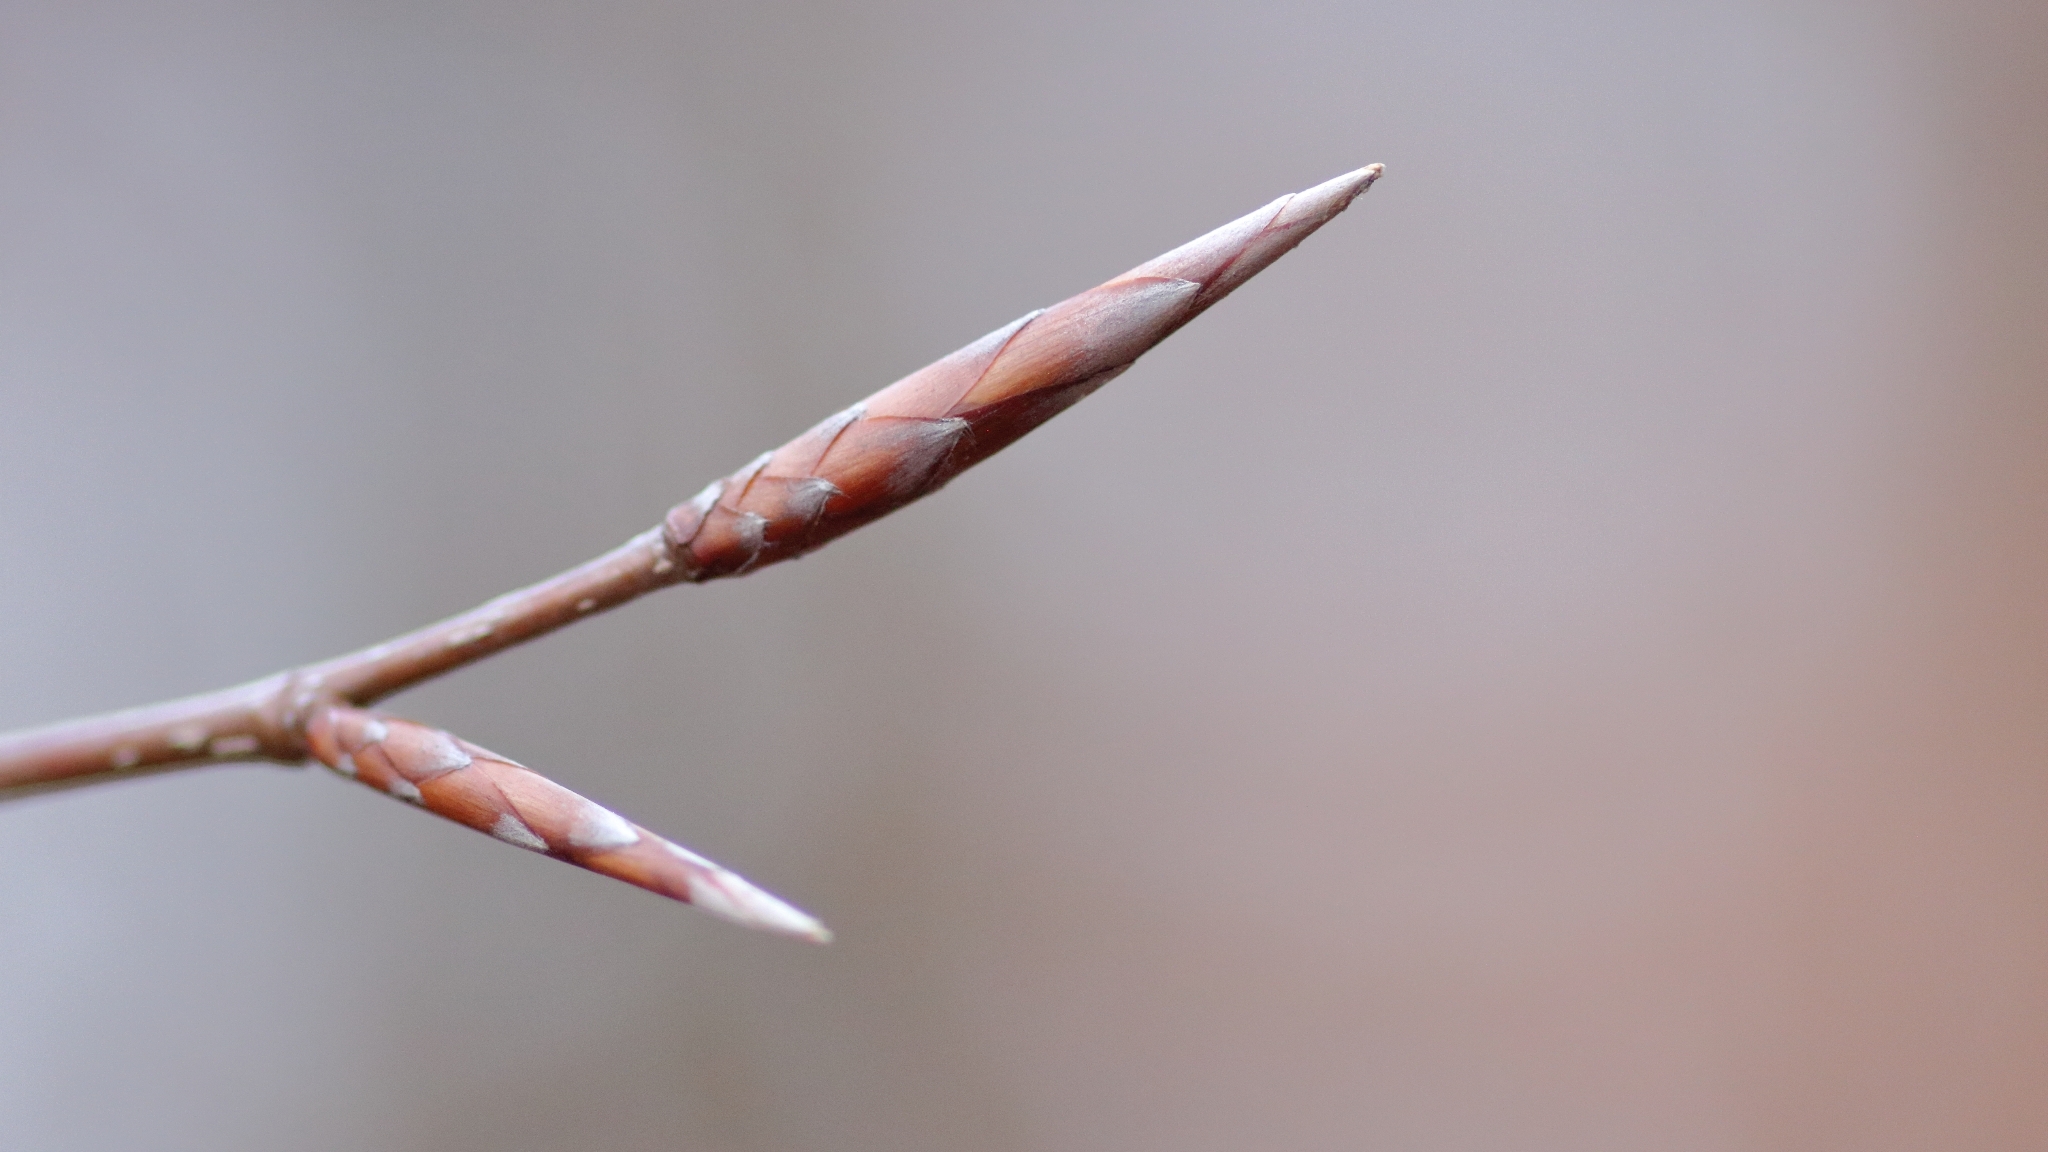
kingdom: Plantae
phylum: Tracheophyta
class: Magnoliopsida
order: Fagales
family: Fagaceae
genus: Fagus
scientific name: Fagus sylvatica
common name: Beech
